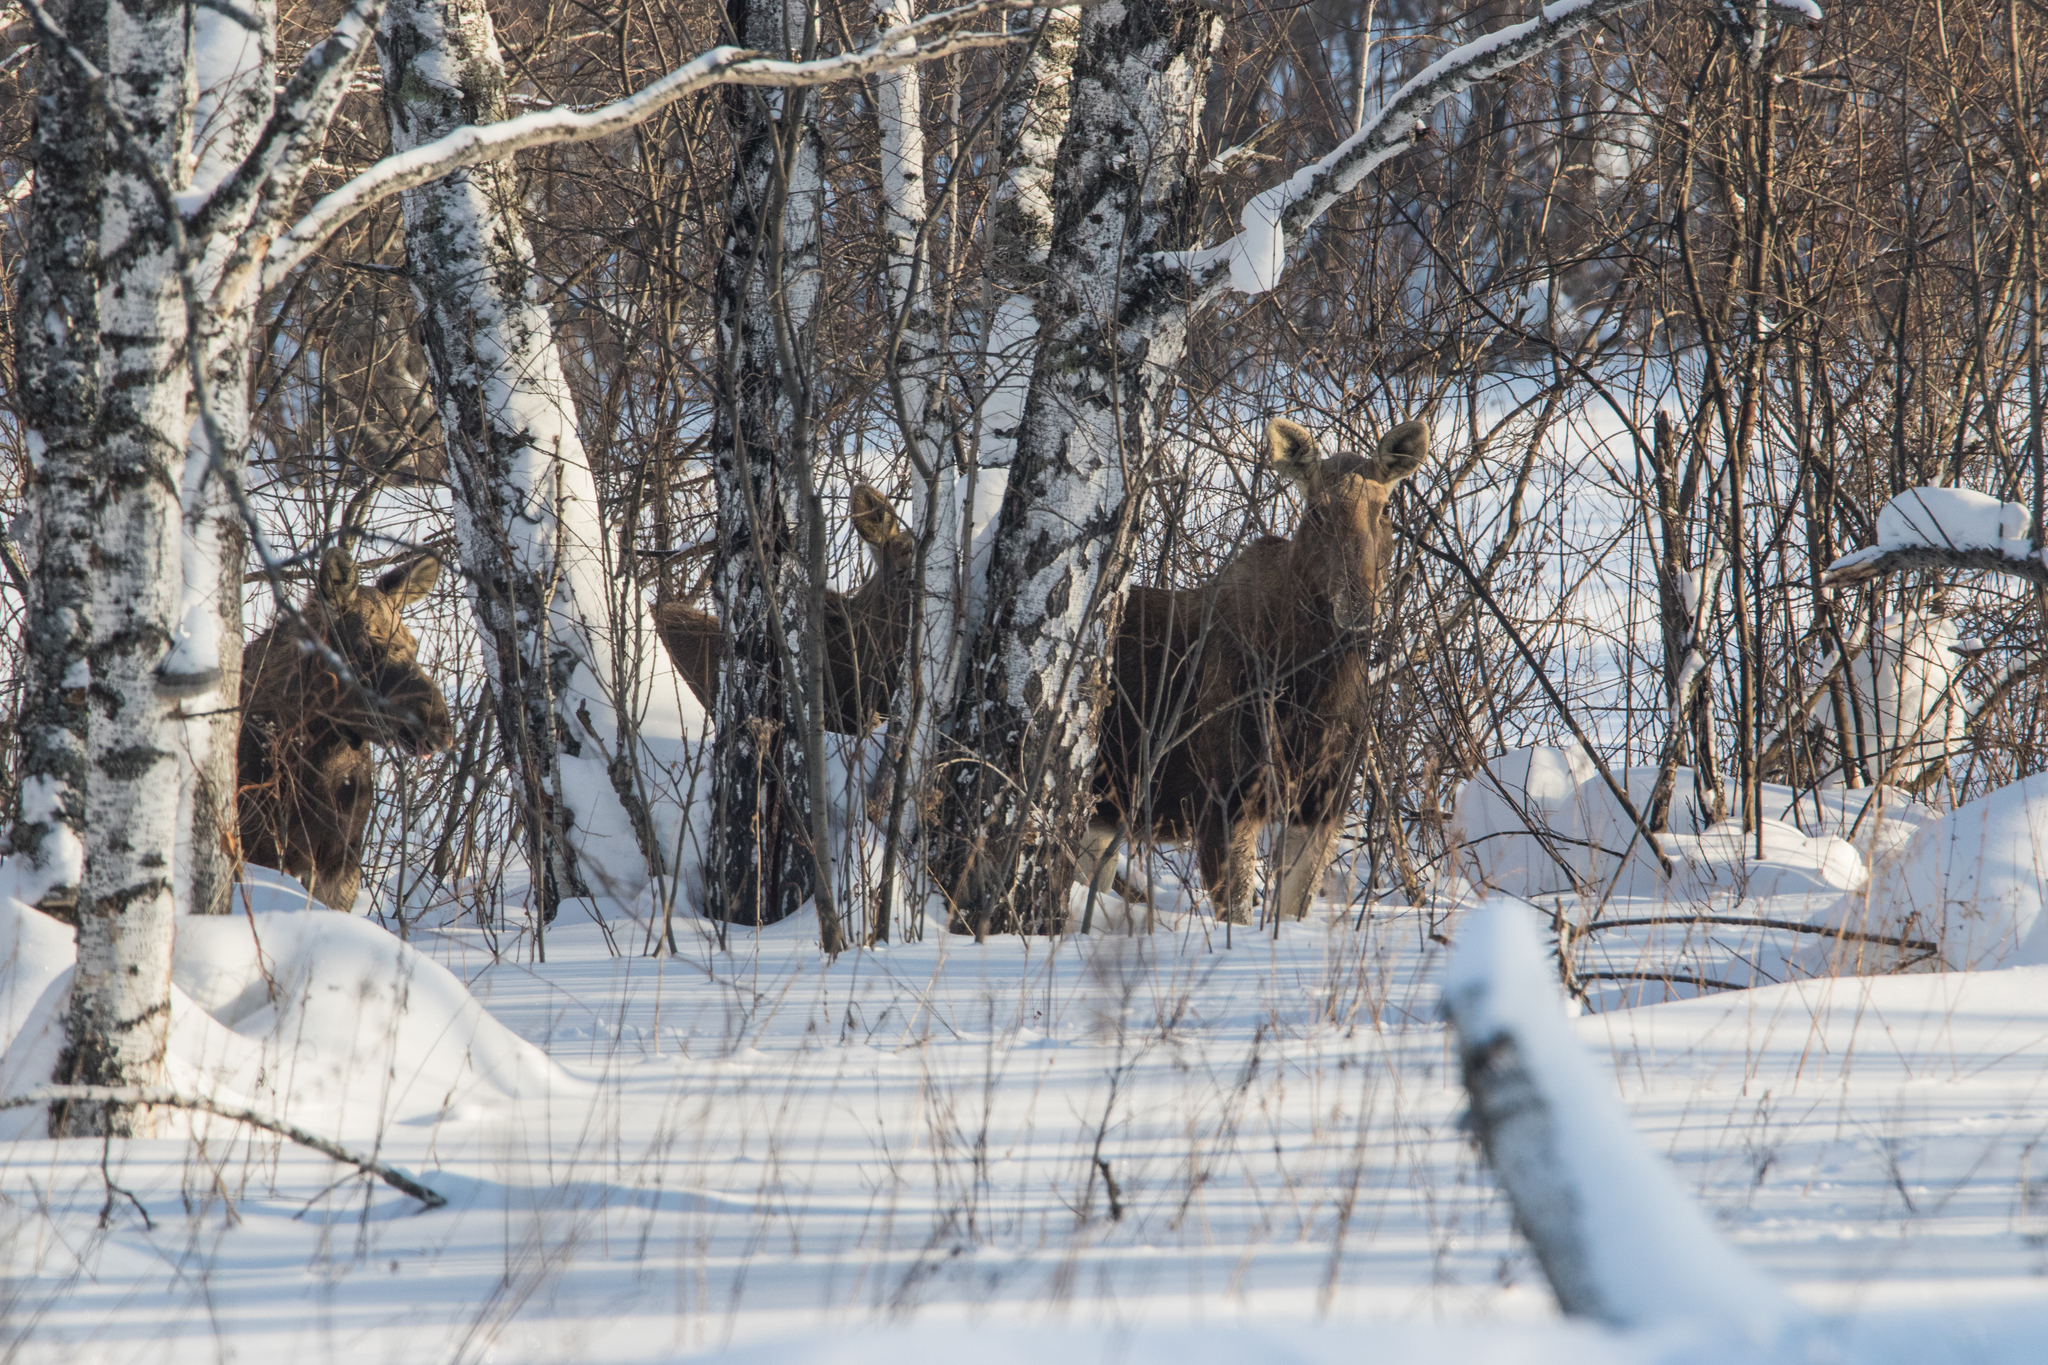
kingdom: Animalia
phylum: Chordata
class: Mammalia
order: Artiodactyla
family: Cervidae
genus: Alces
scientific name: Alces alces
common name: Moose
